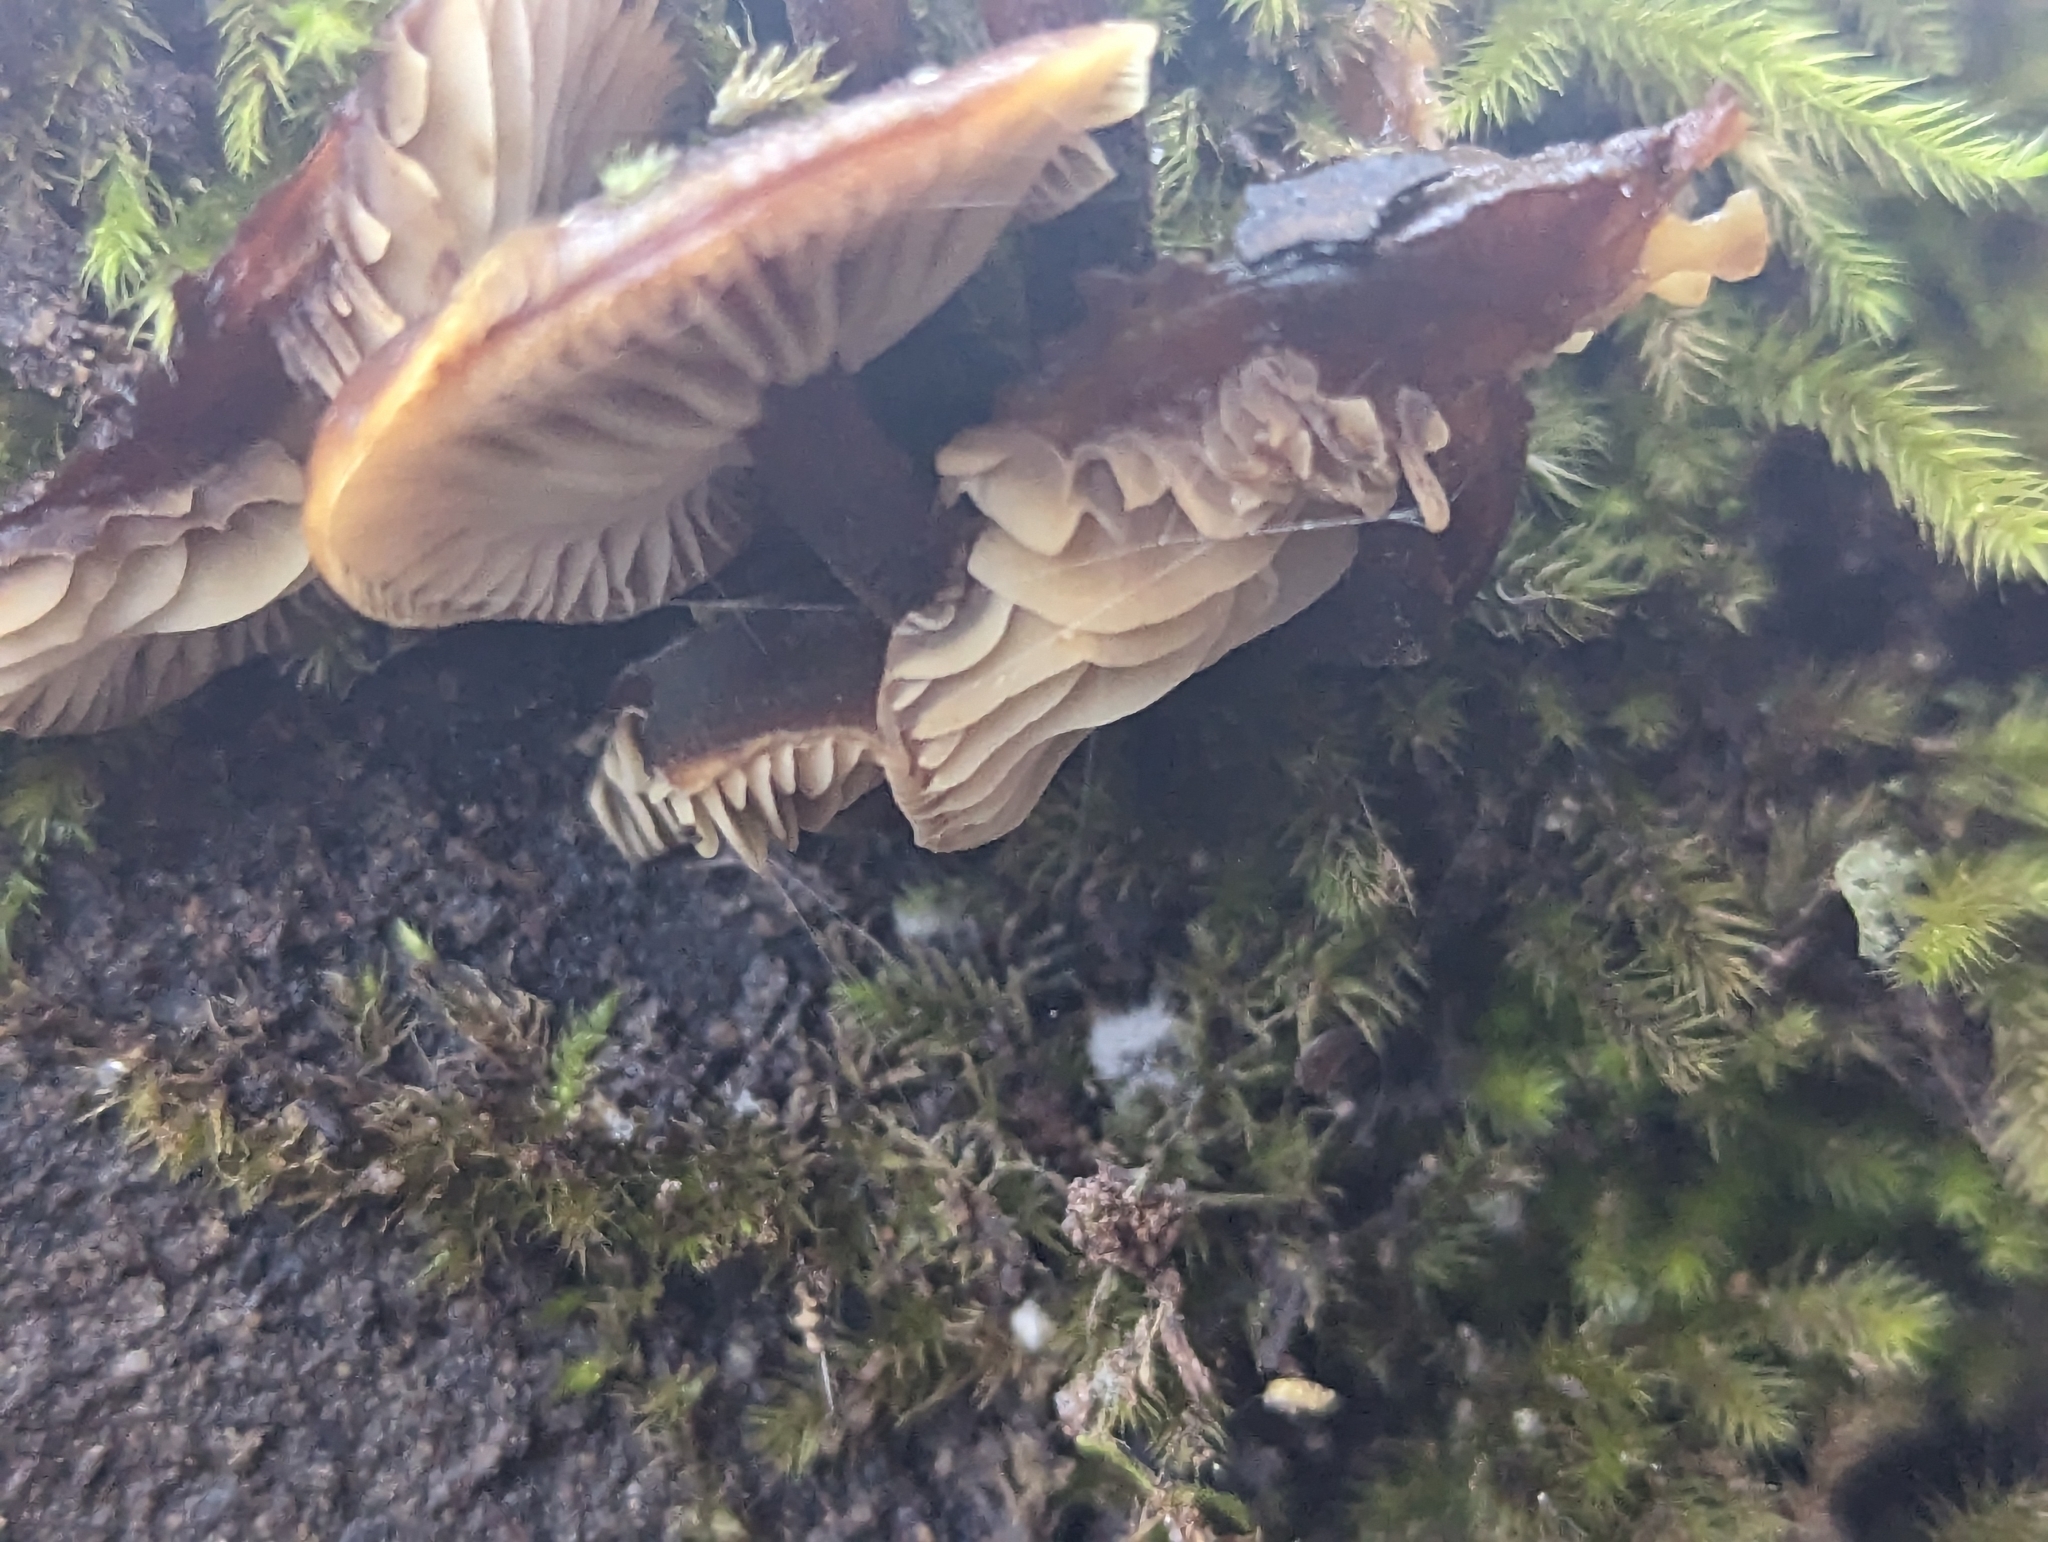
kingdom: Fungi
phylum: Basidiomycota
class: Agaricomycetes
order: Agaricales
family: Physalacriaceae
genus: Flammulina
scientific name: Flammulina velutipes
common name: Velvet shank
